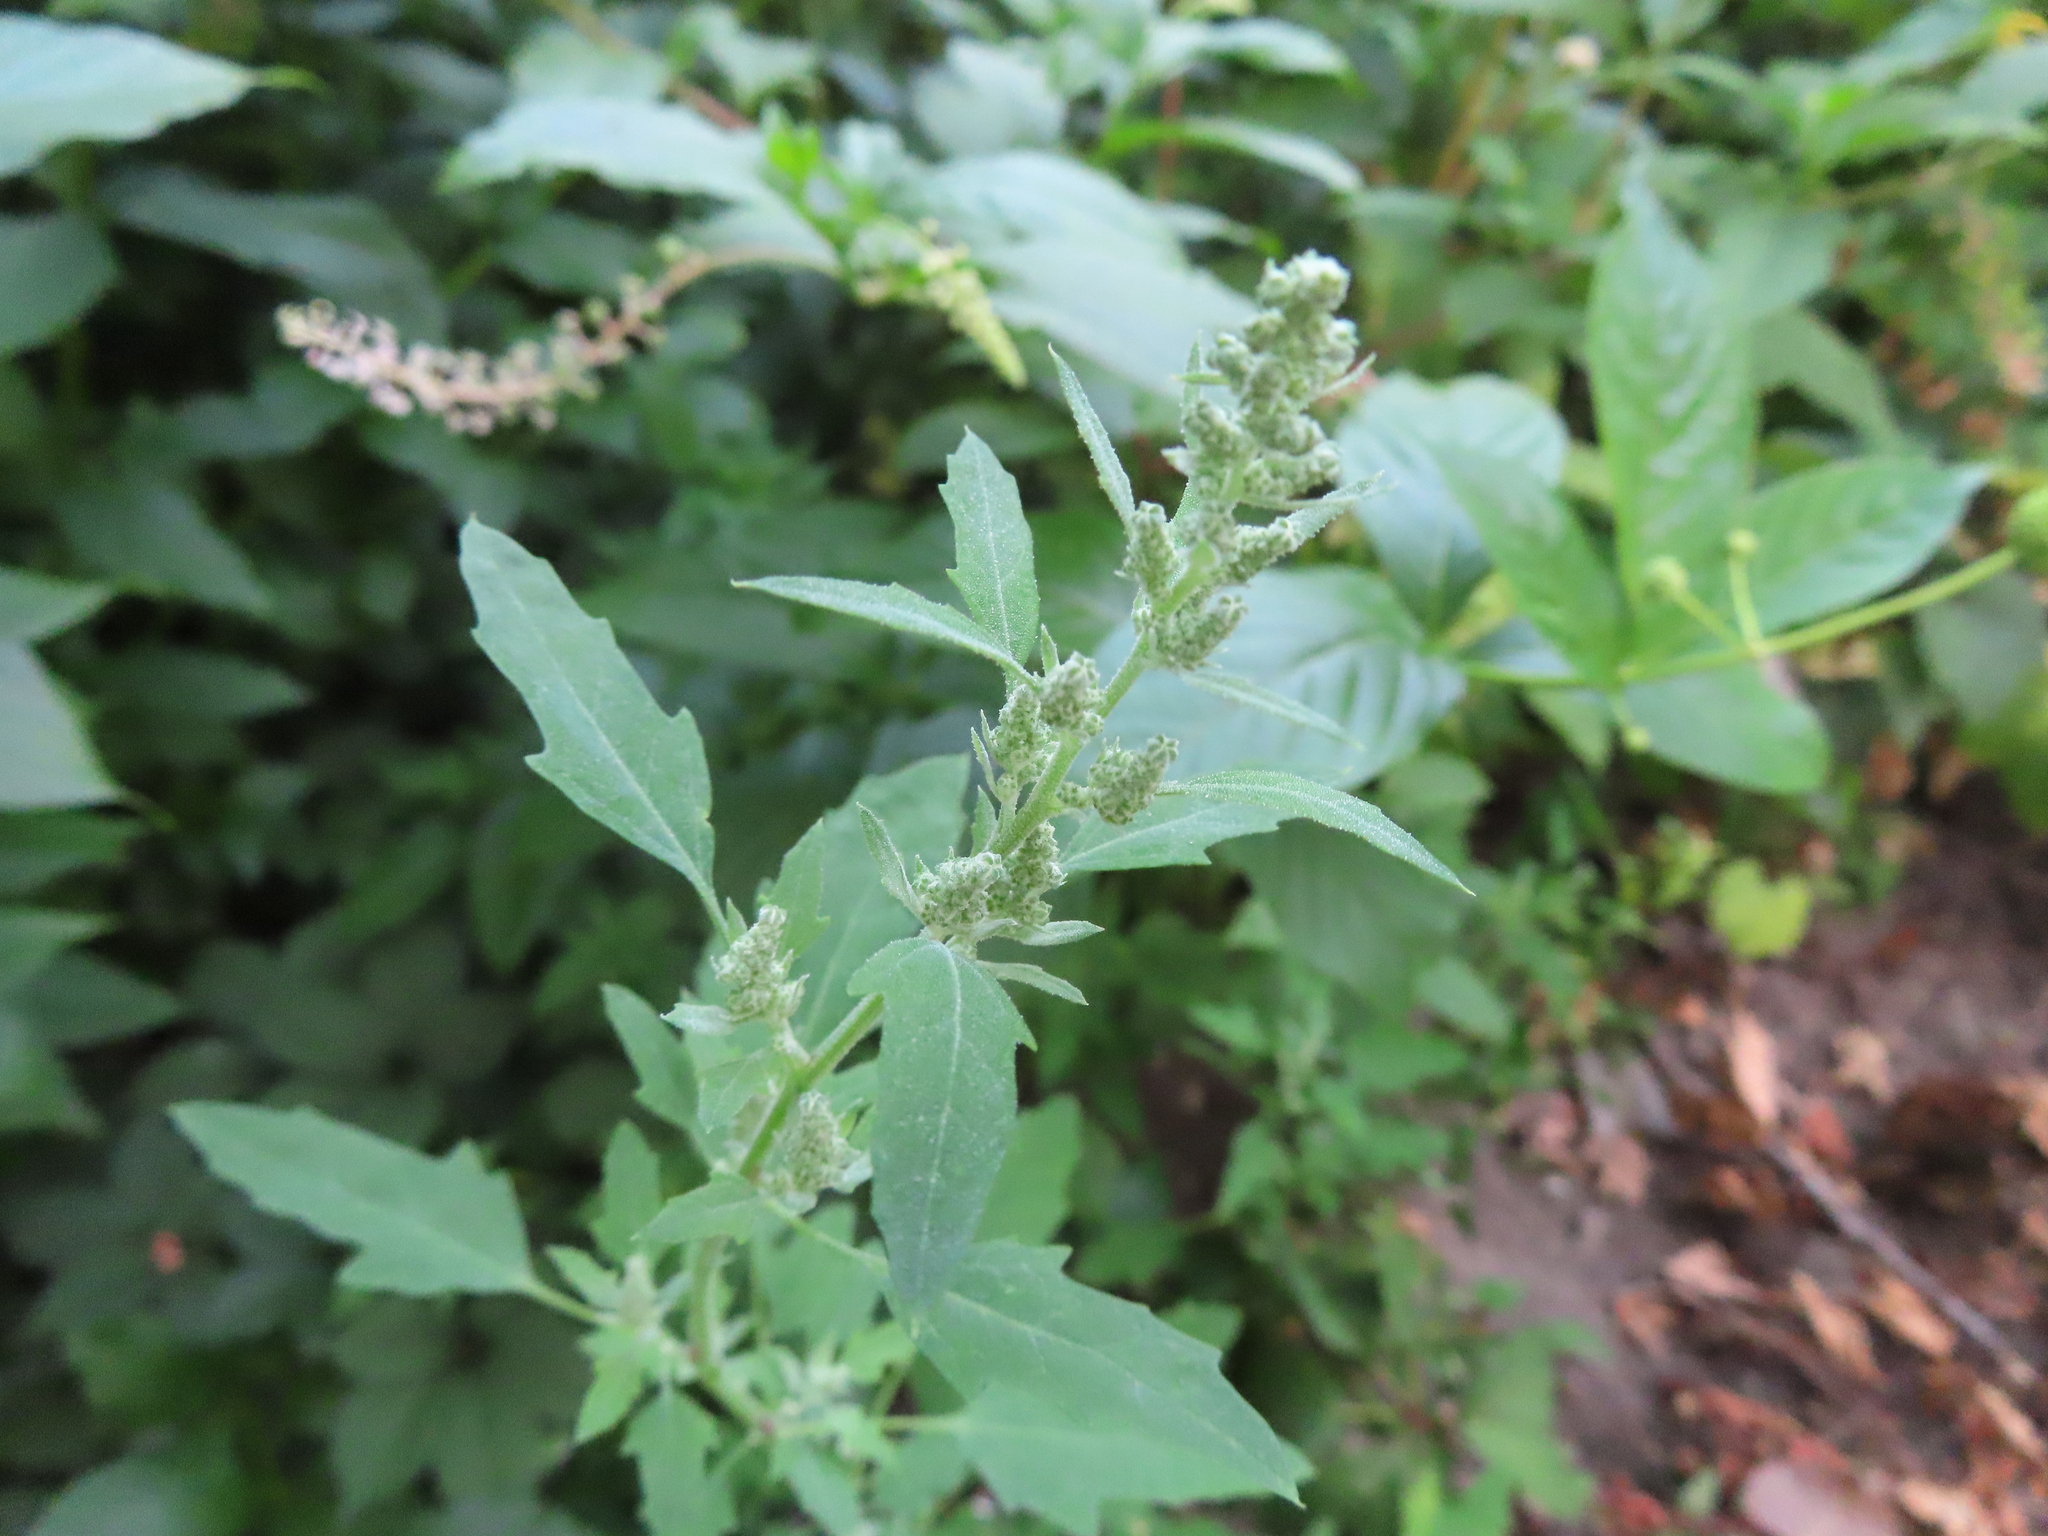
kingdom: Plantae
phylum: Tracheophyta
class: Magnoliopsida
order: Caryophyllales
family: Amaranthaceae
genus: Chenopodium
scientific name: Chenopodium album
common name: Fat-hen
